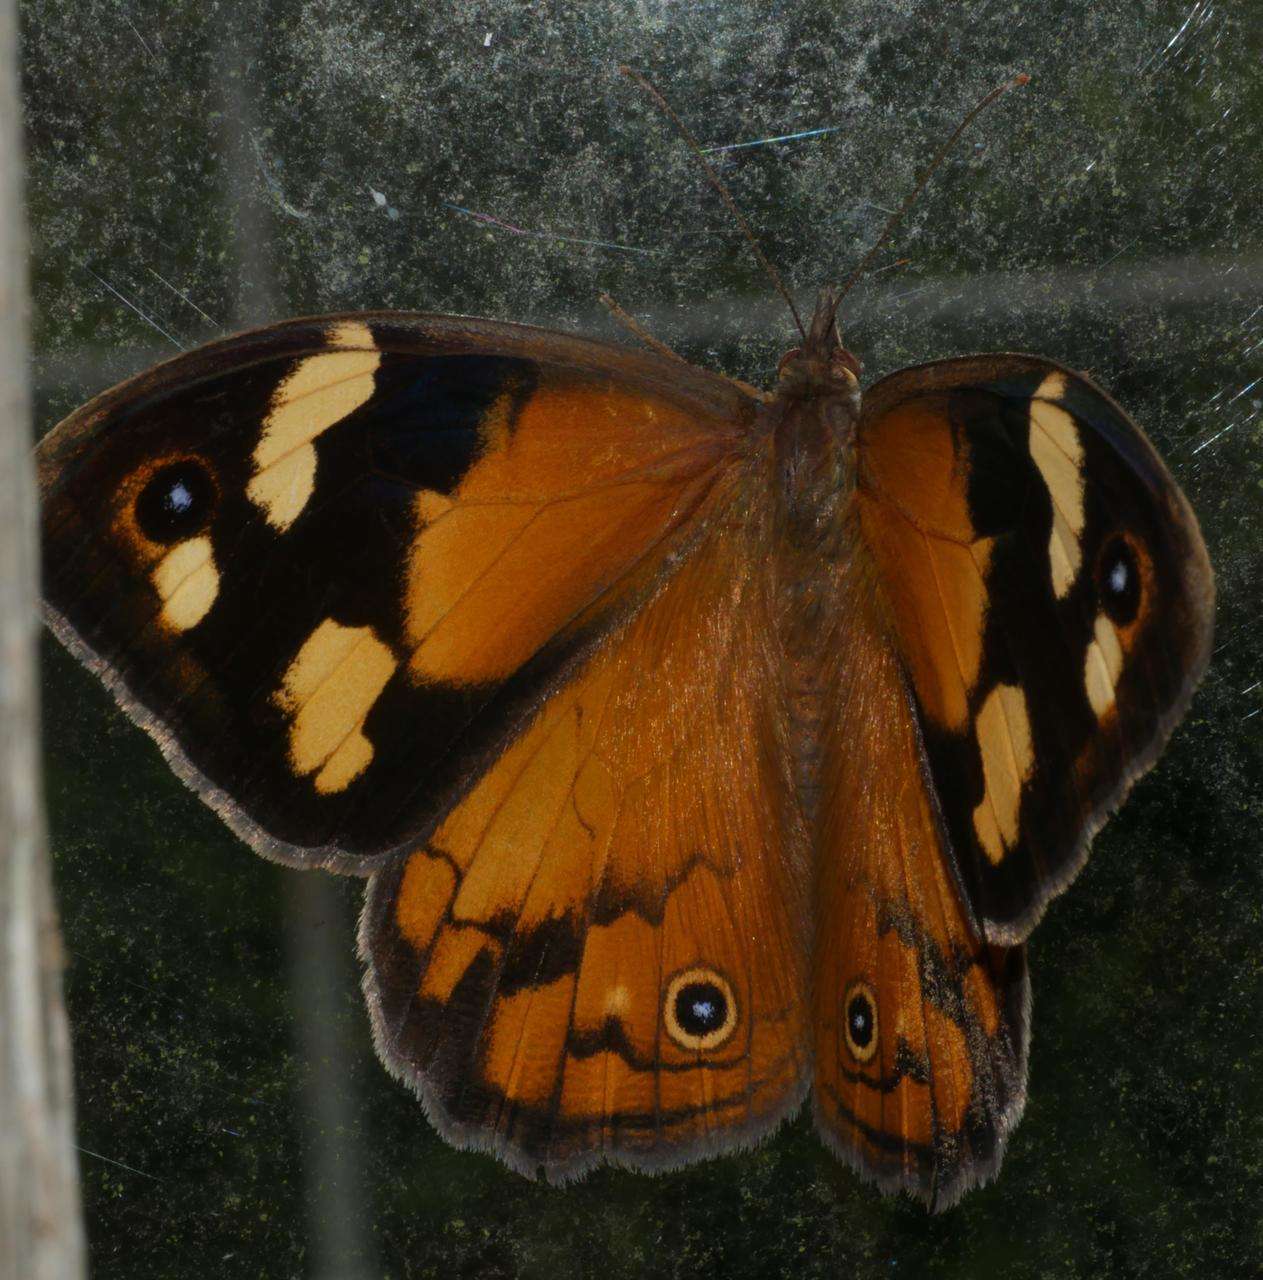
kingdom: Animalia
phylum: Arthropoda
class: Insecta
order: Lepidoptera
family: Nymphalidae
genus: Heteronympha
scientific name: Heteronympha merope
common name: Common brown
